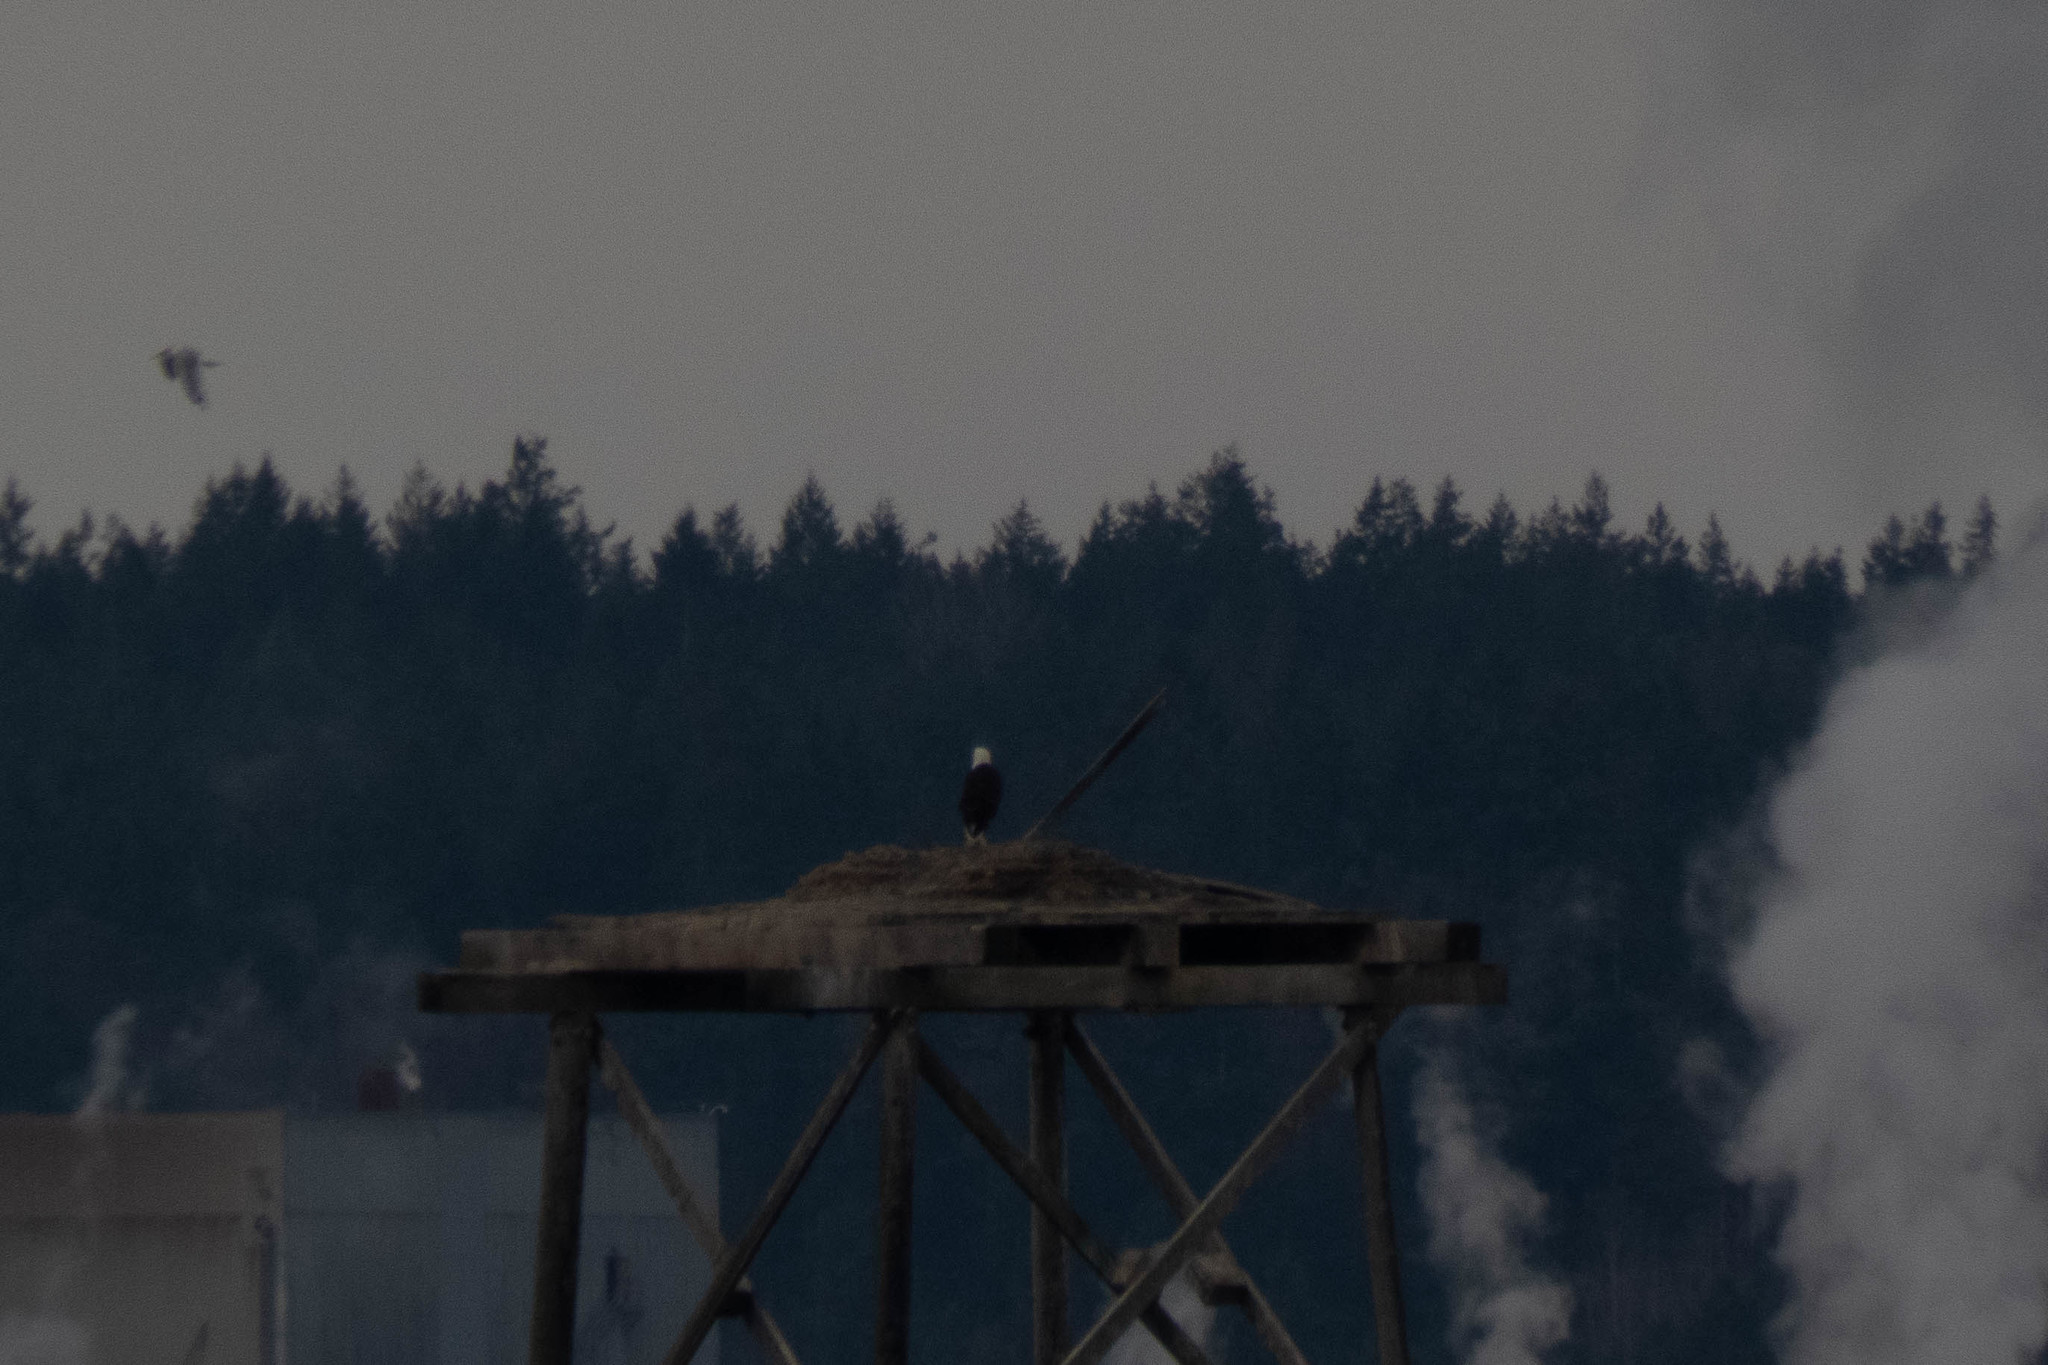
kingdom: Animalia
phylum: Chordata
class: Aves
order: Accipitriformes
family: Accipitridae
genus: Haliaeetus
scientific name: Haliaeetus leucocephalus
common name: Bald eagle
